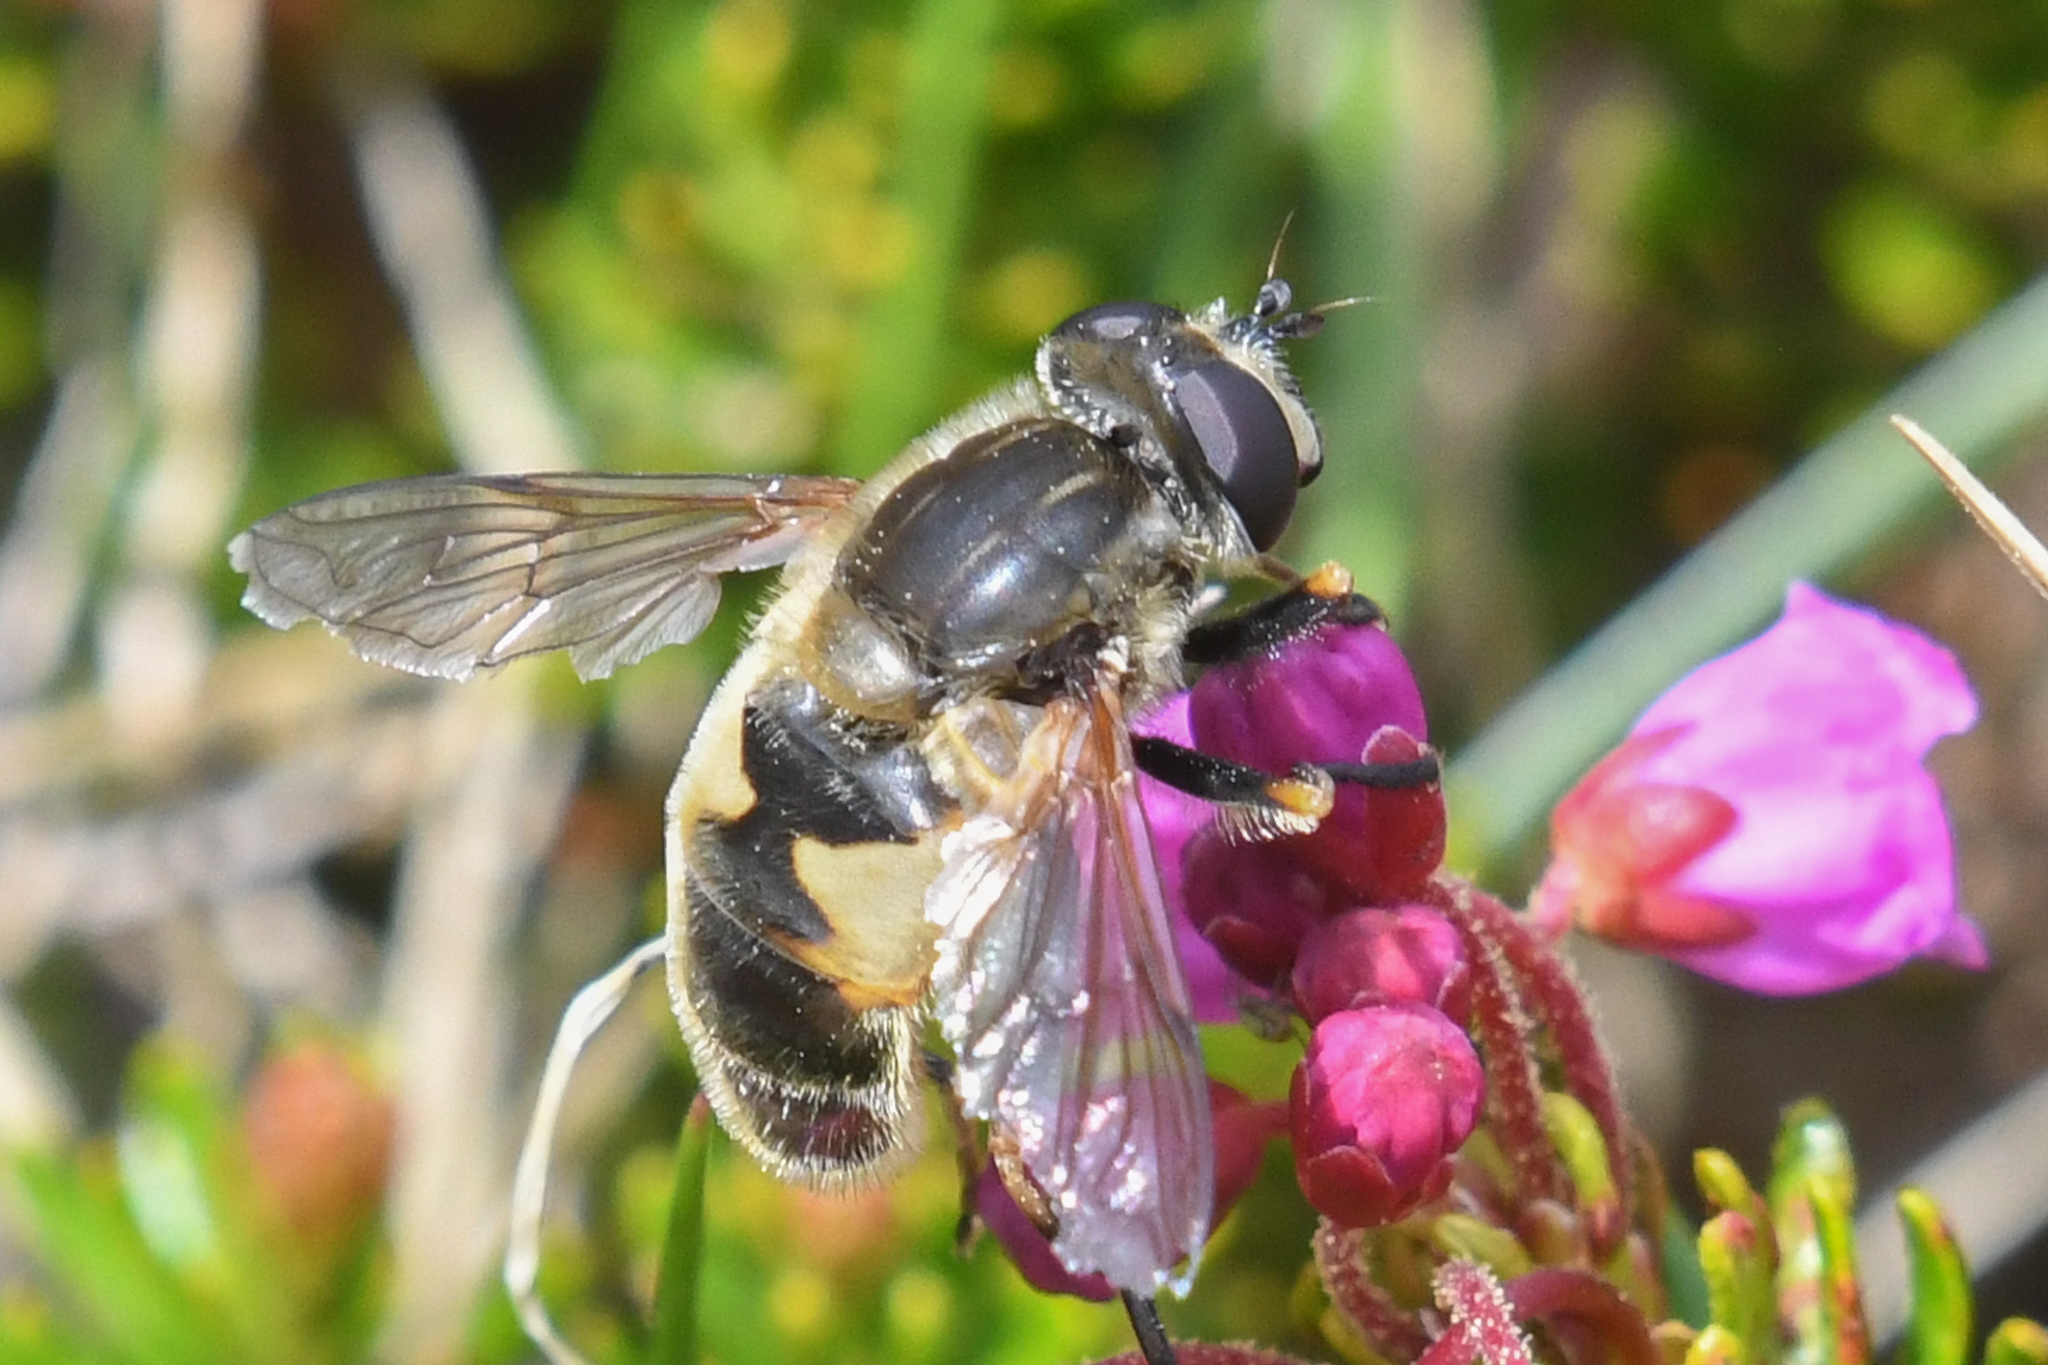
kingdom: Animalia
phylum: Arthropoda
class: Insecta
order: Diptera
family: Syrphidae
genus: Helophilus
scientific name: Helophilus lapponicus
